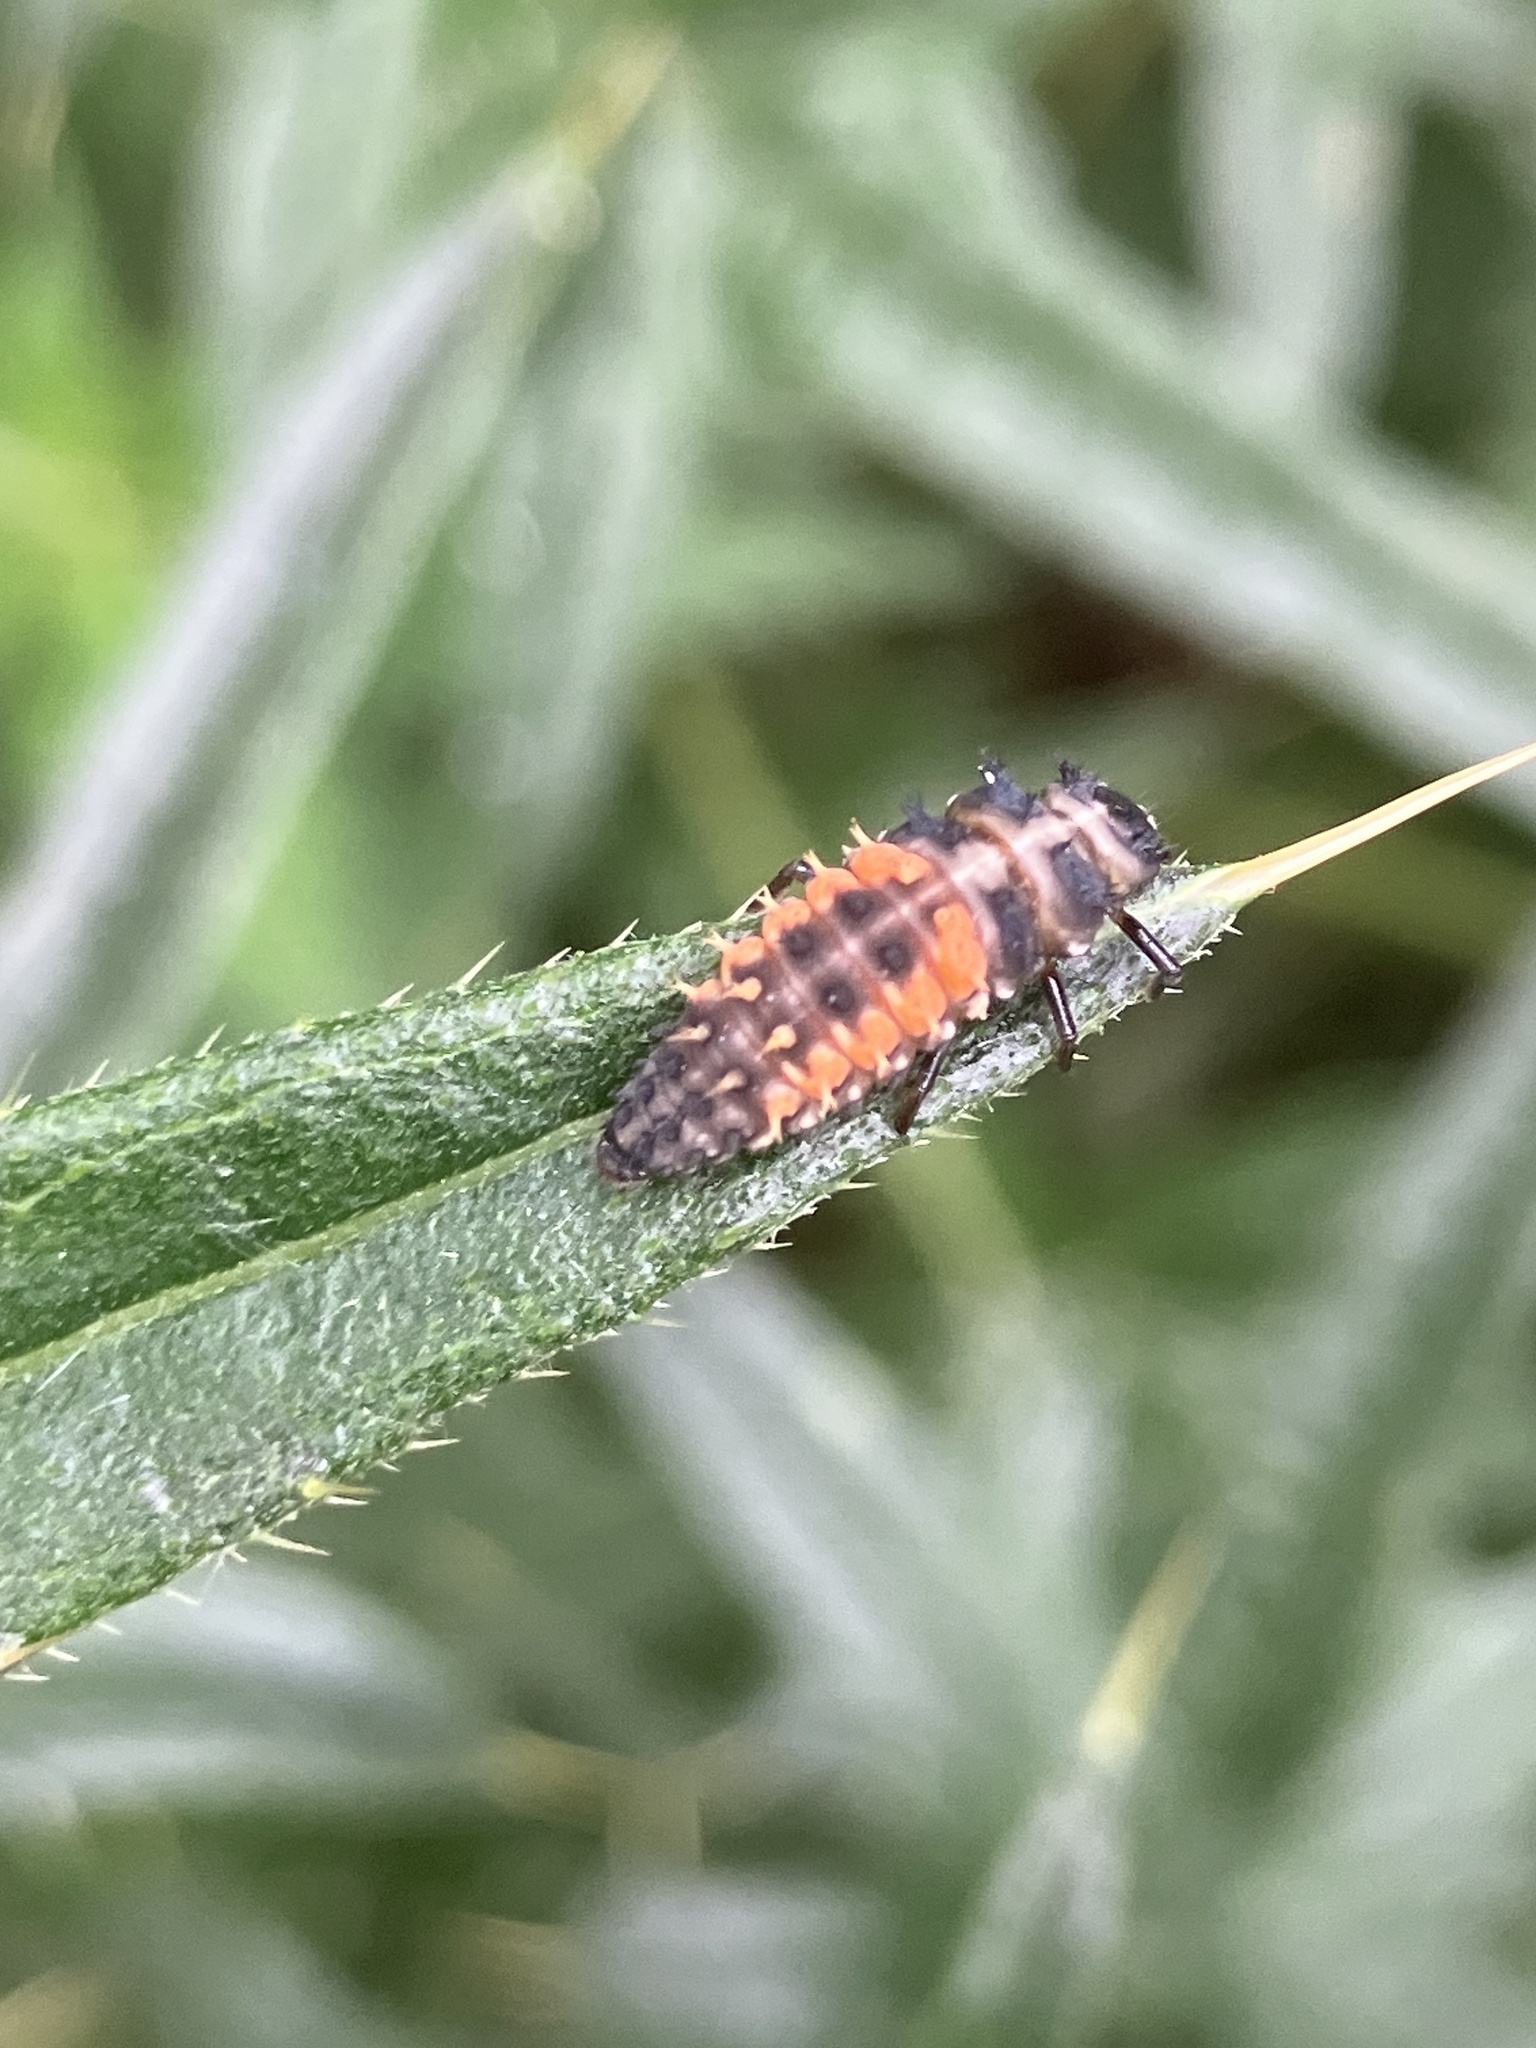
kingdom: Animalia
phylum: Arthropoda
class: Insecta
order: Coleoptera
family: Coccinellidae
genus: Harmonia
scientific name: Harmonia axyridis
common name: Harlequin ladybird
